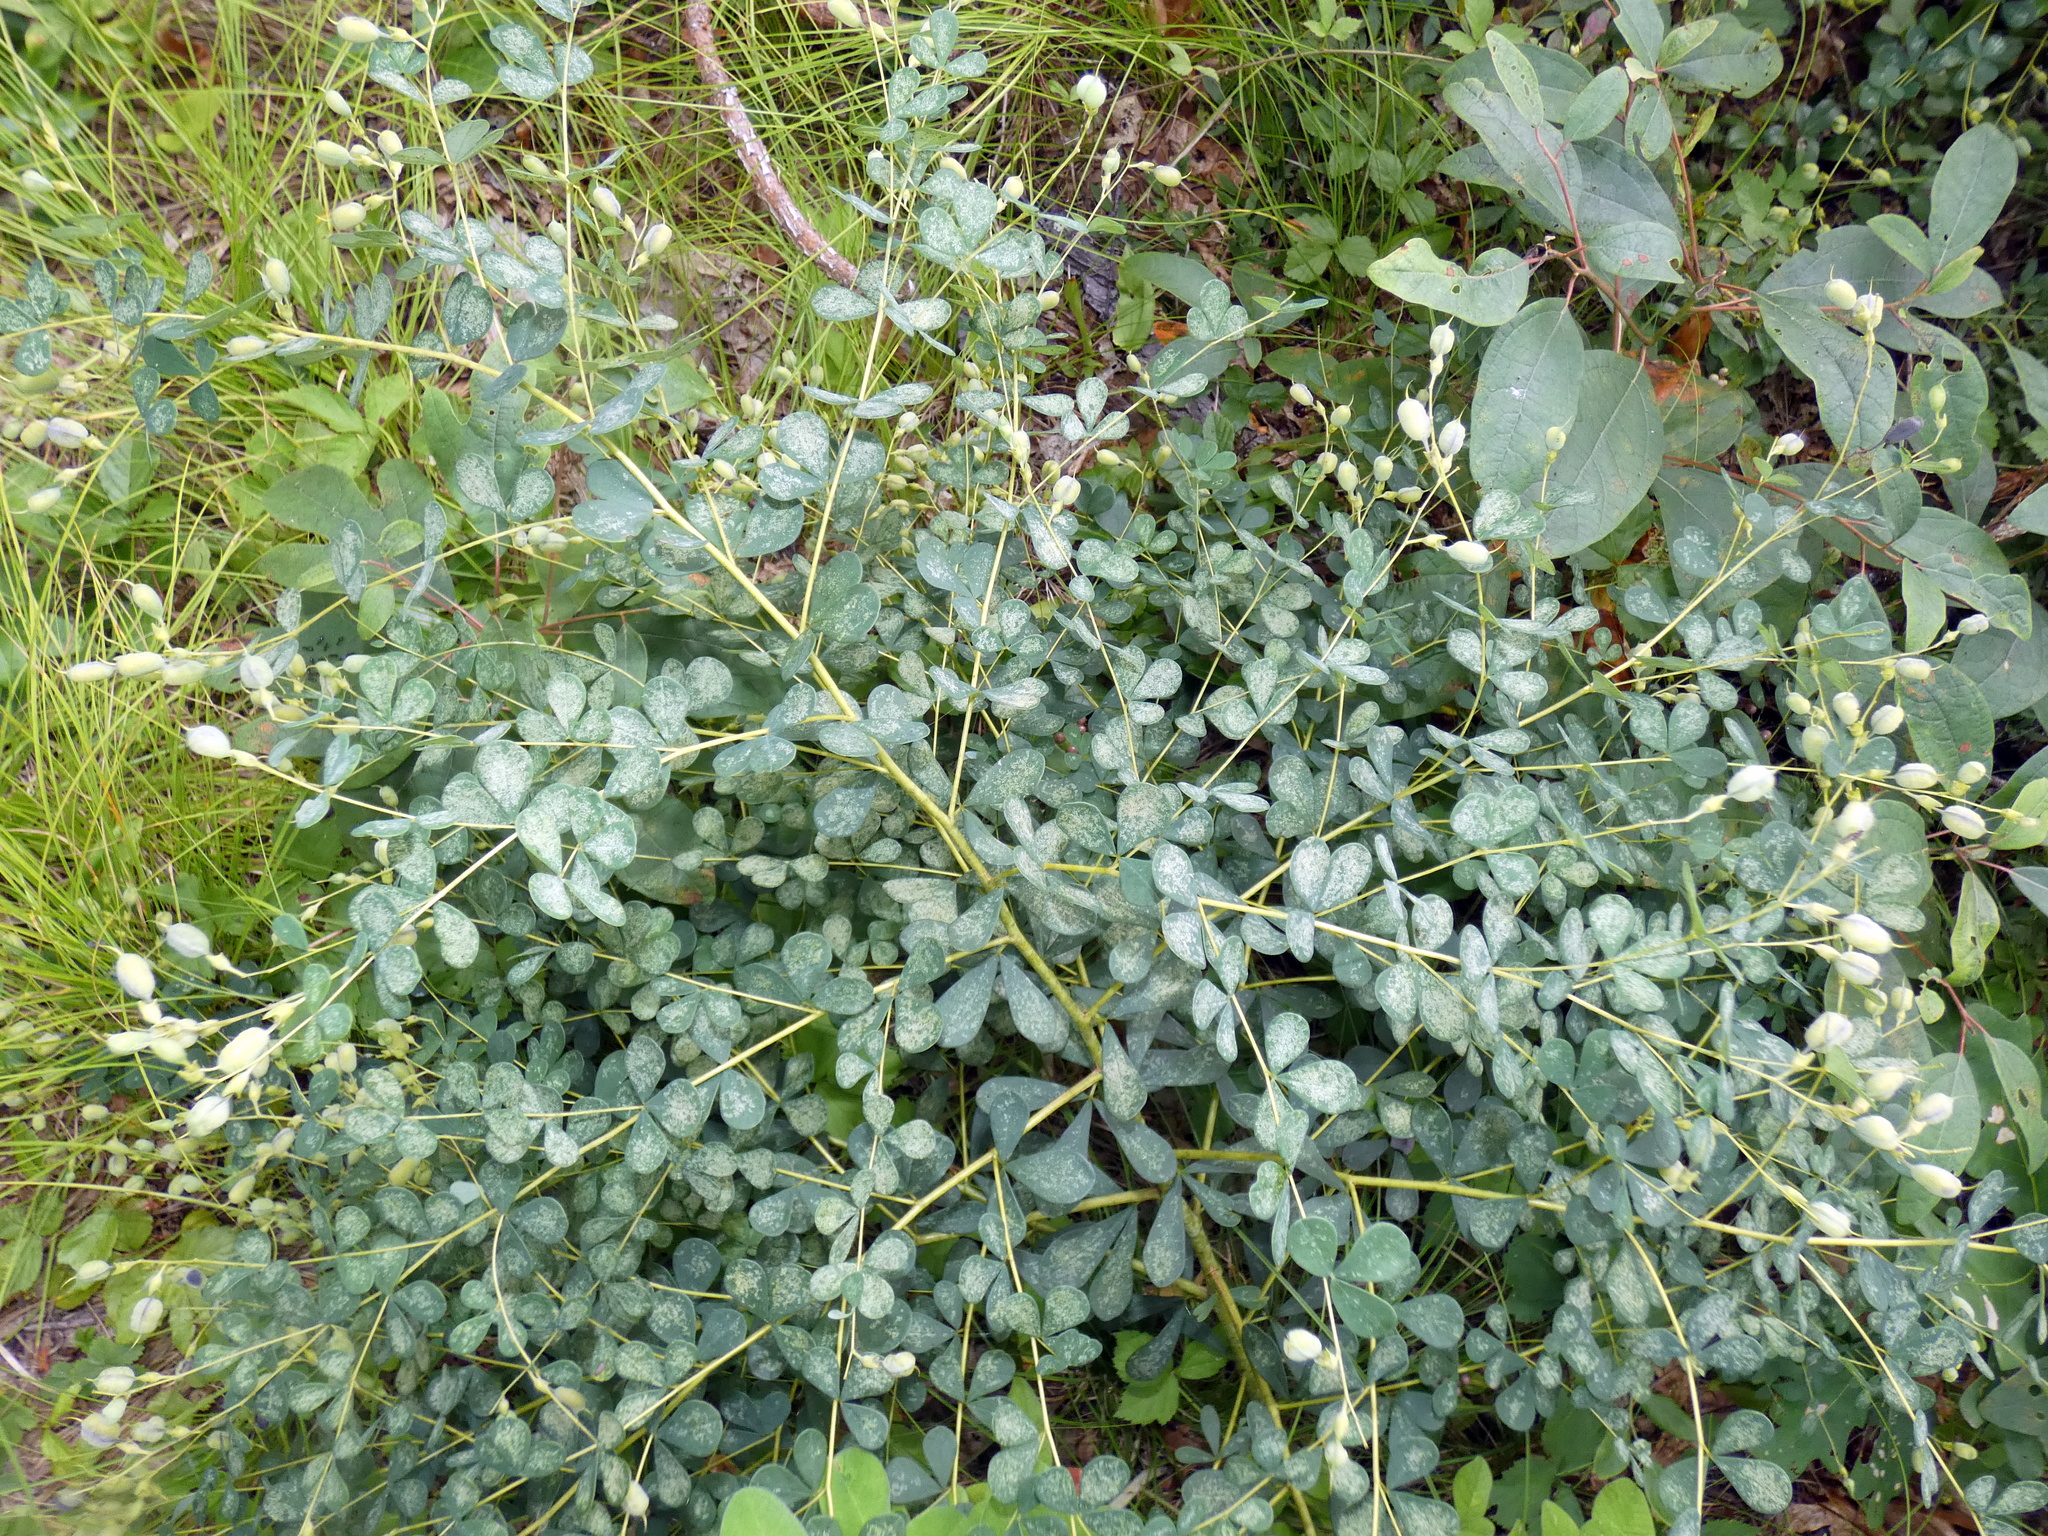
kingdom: Plantae
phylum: Tracheophyta
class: Magnoliopsida
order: Fabales
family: Fabaceae
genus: Baptisia
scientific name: Baptisia tinctoria
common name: Wild indigo
